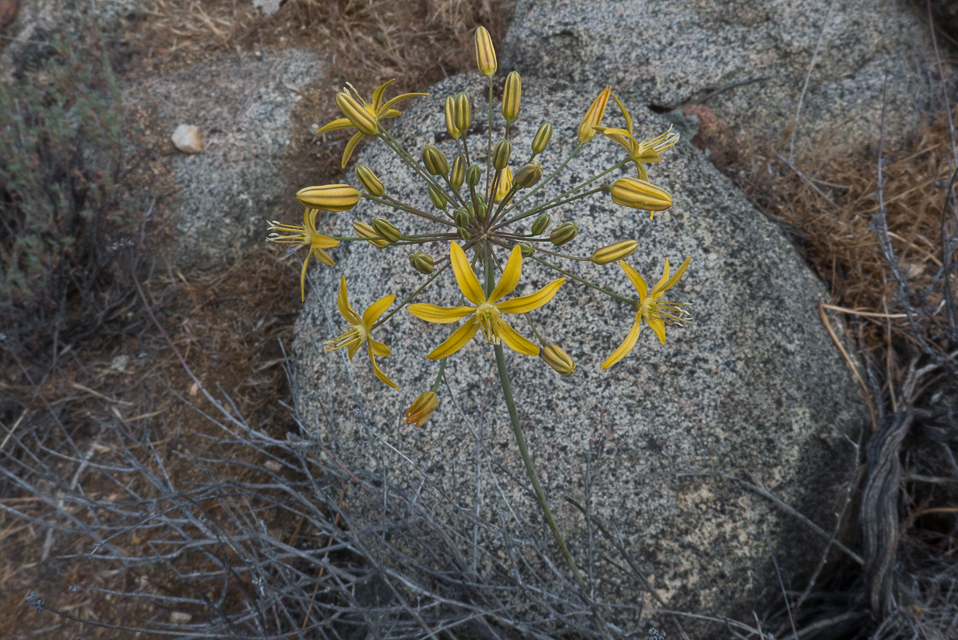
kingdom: Plantae
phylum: Tracheophyta
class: Liliopsida
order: Asparagales
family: Asparagaceae
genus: Bloomeria
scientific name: Bloomeria crocea
